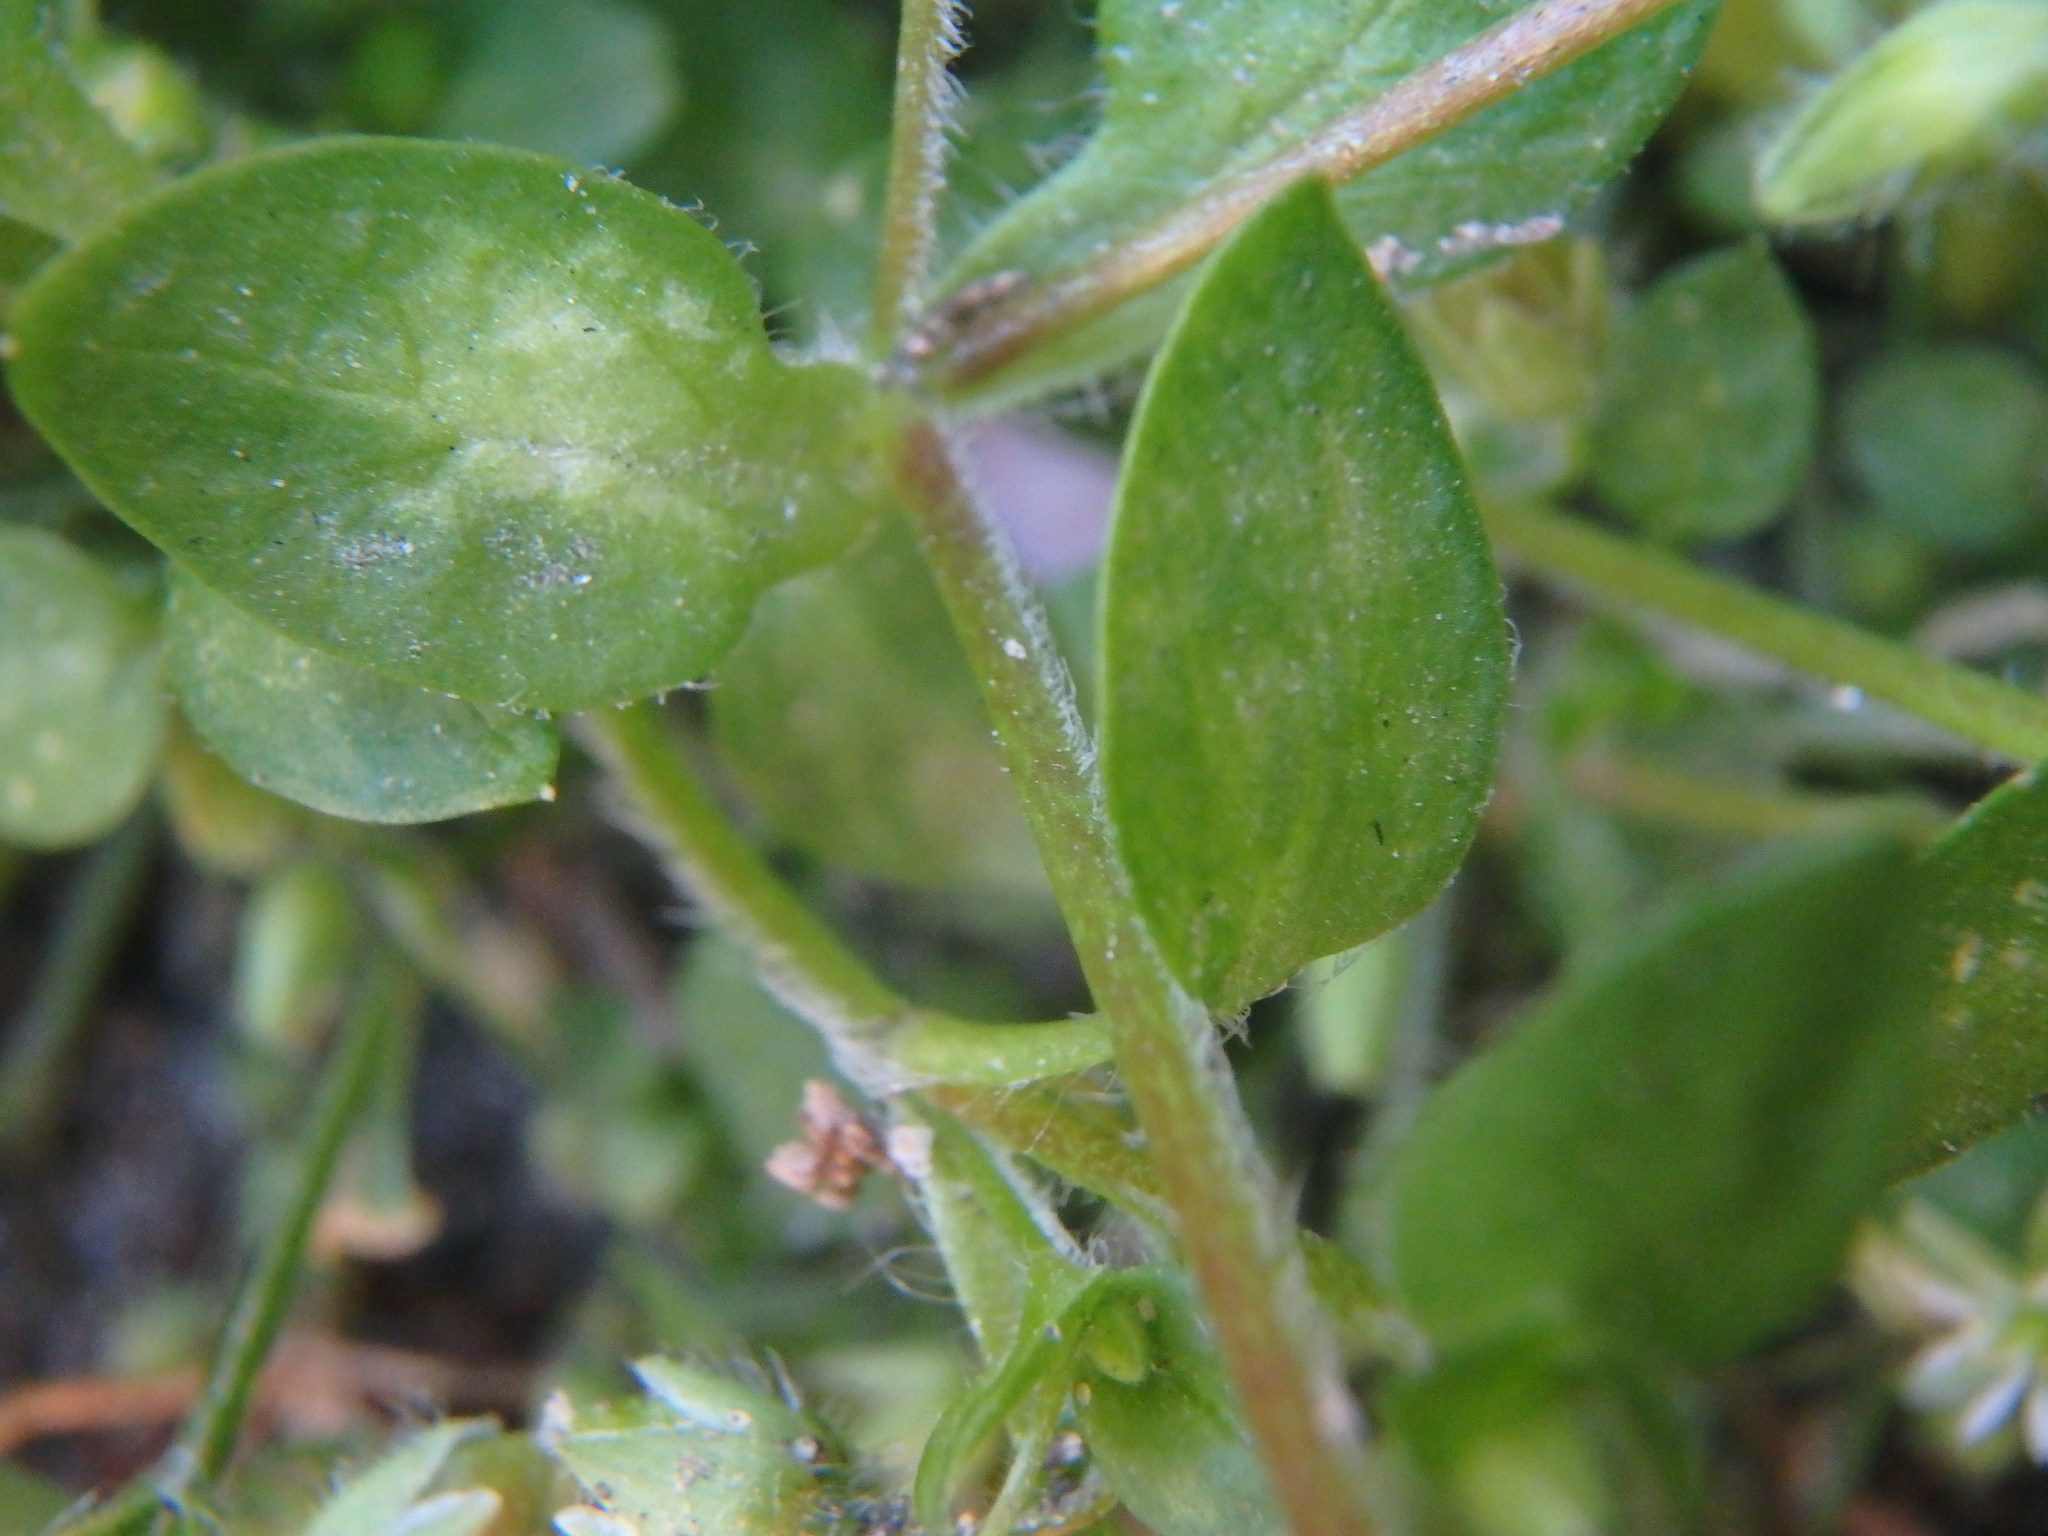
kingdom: Plantae
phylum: Tracheophyta
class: Magnoliopsida
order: Caryophyllales
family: Caryophyllaceae
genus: Stellaria
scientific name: Stellaria media
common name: Common chickweed
